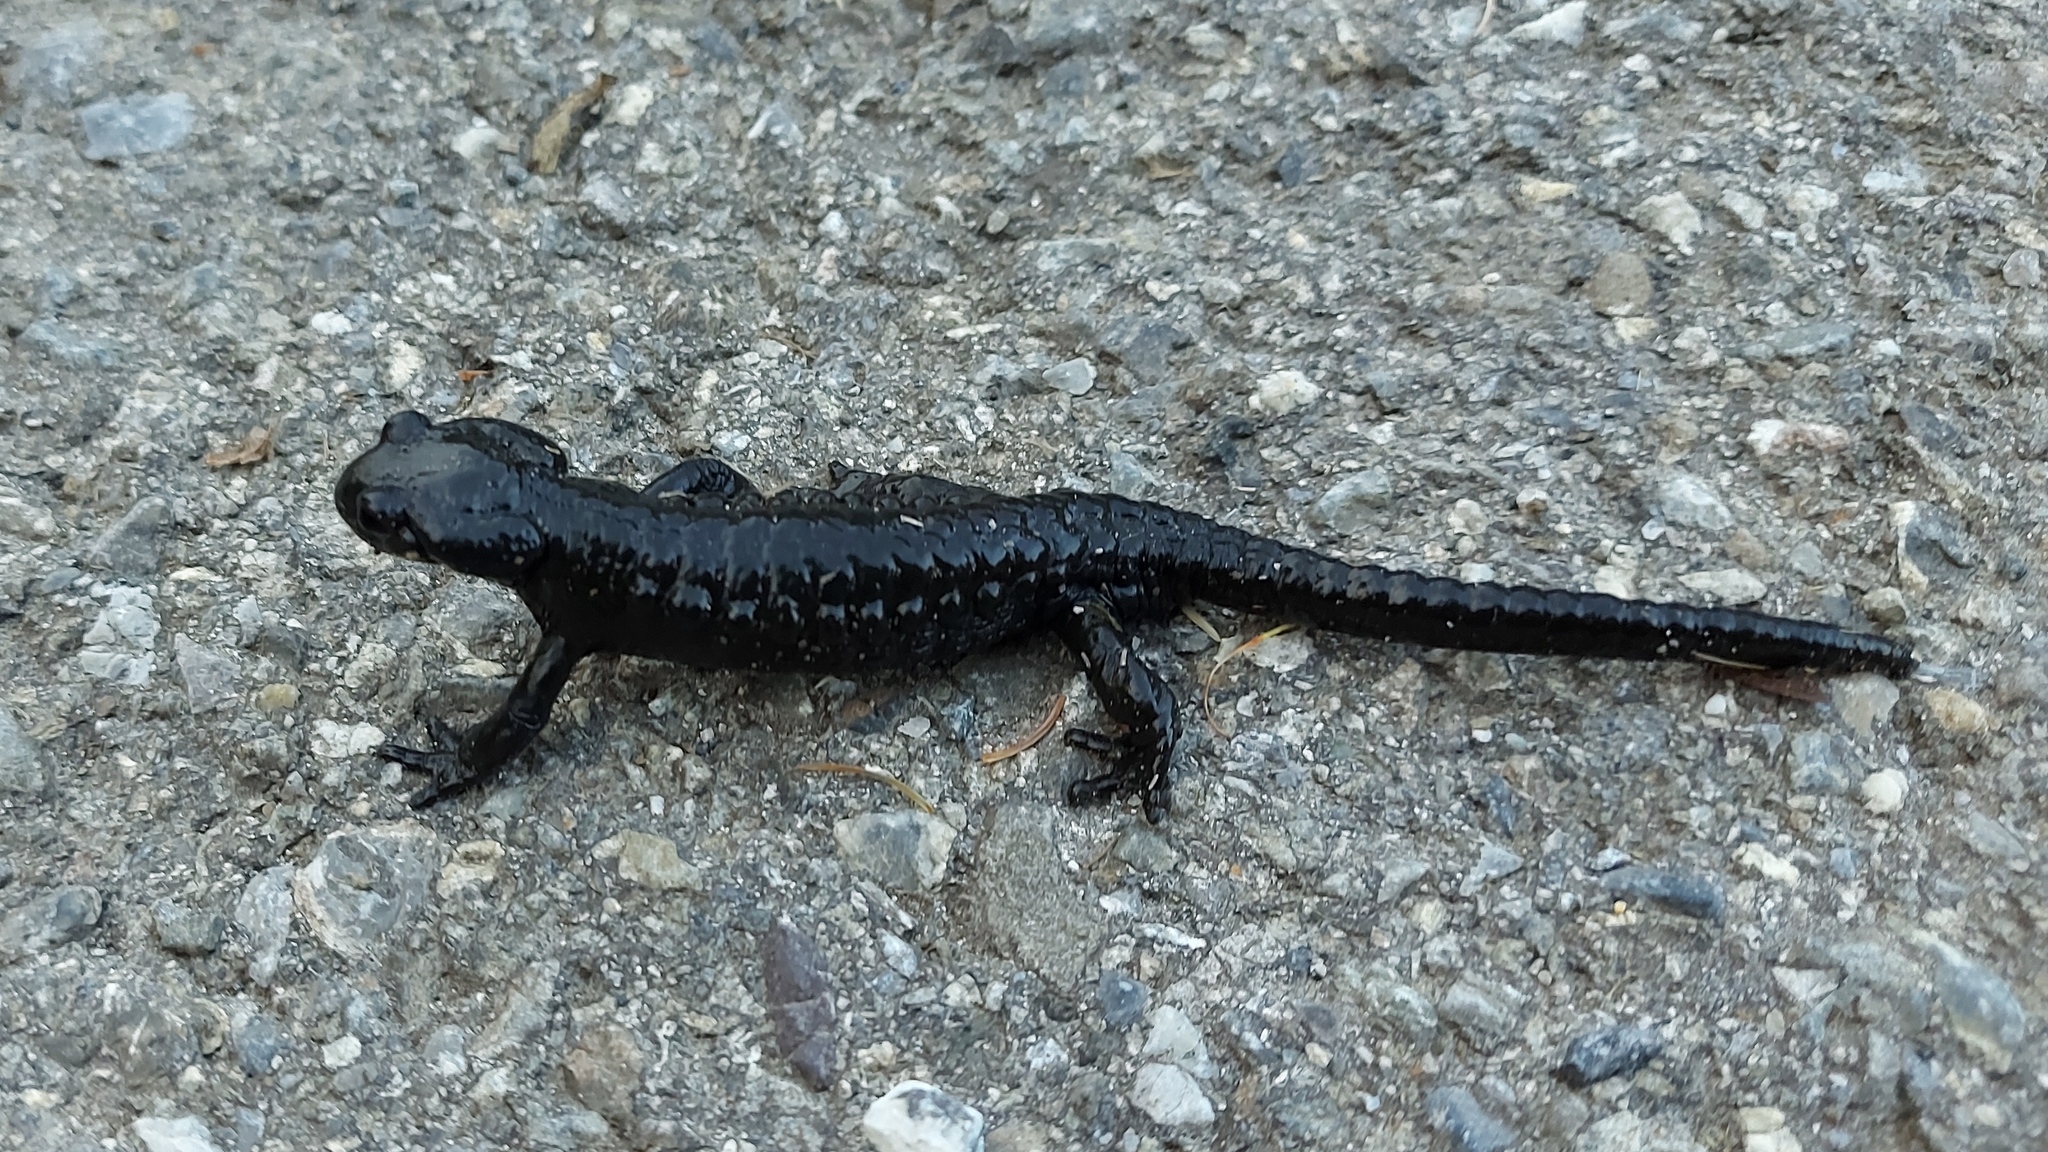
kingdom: Animalia
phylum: Chordata
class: Amphibia
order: Caudata
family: Salamandridae
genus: Salamandra
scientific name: Salamandra atra
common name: Alpine salamander
